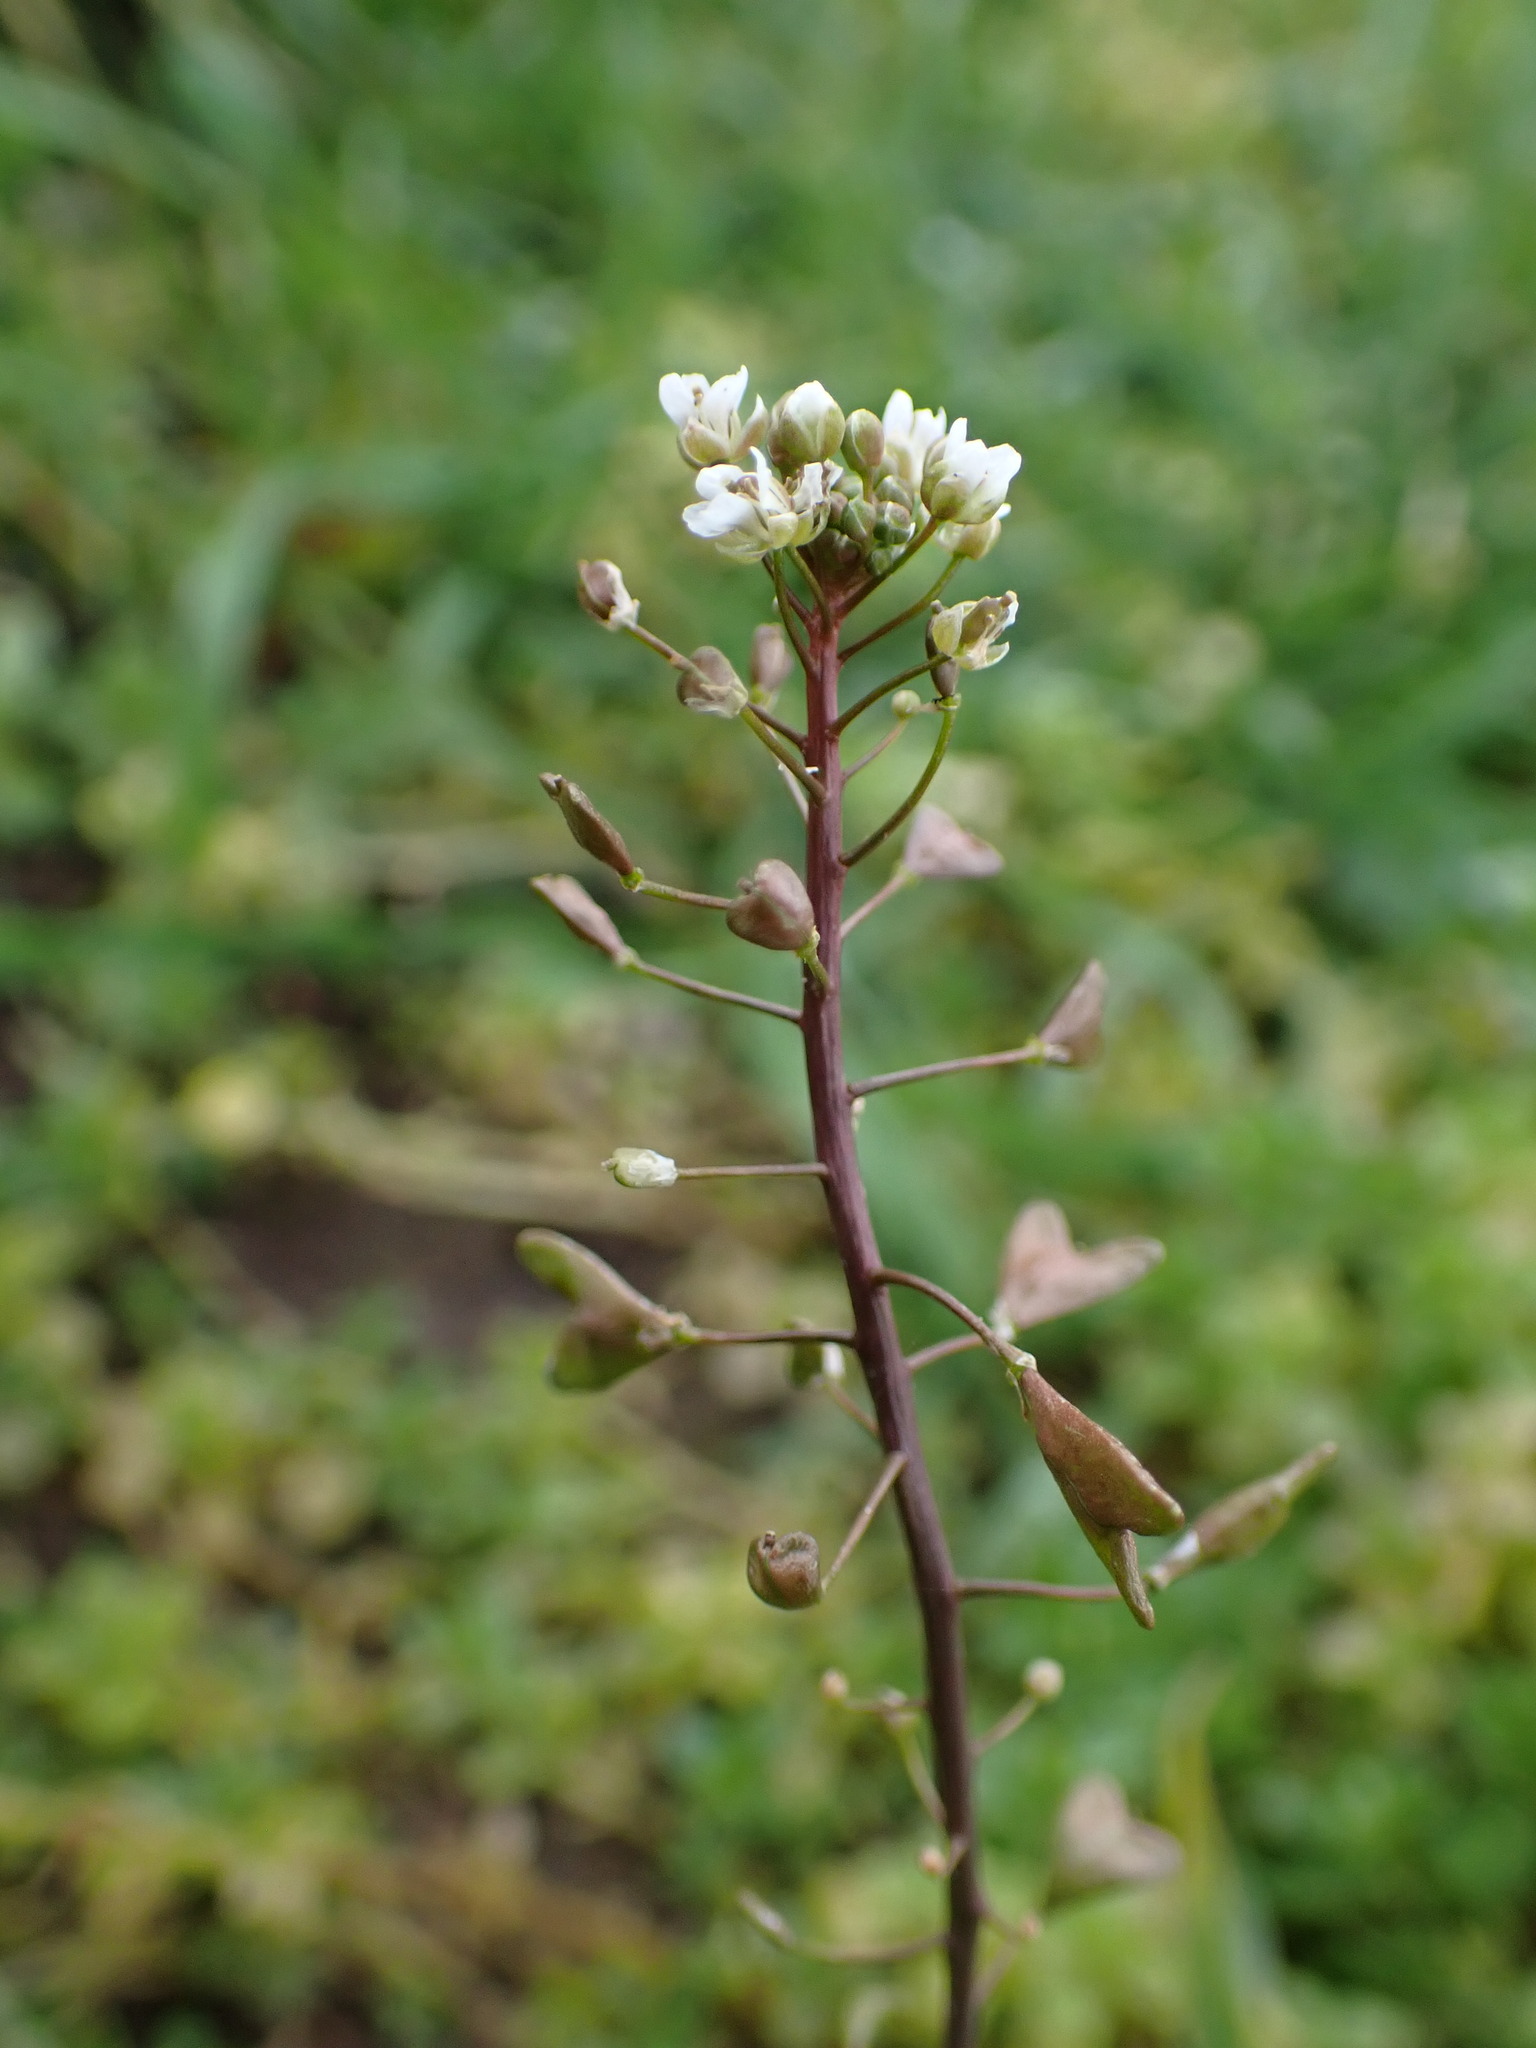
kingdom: Plantae
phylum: Tracheophyta
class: Magnoliopsida
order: Brassicales
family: Brassicaceae
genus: Capsella
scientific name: Capsella bursa-pastoris
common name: Shepherd's purse
